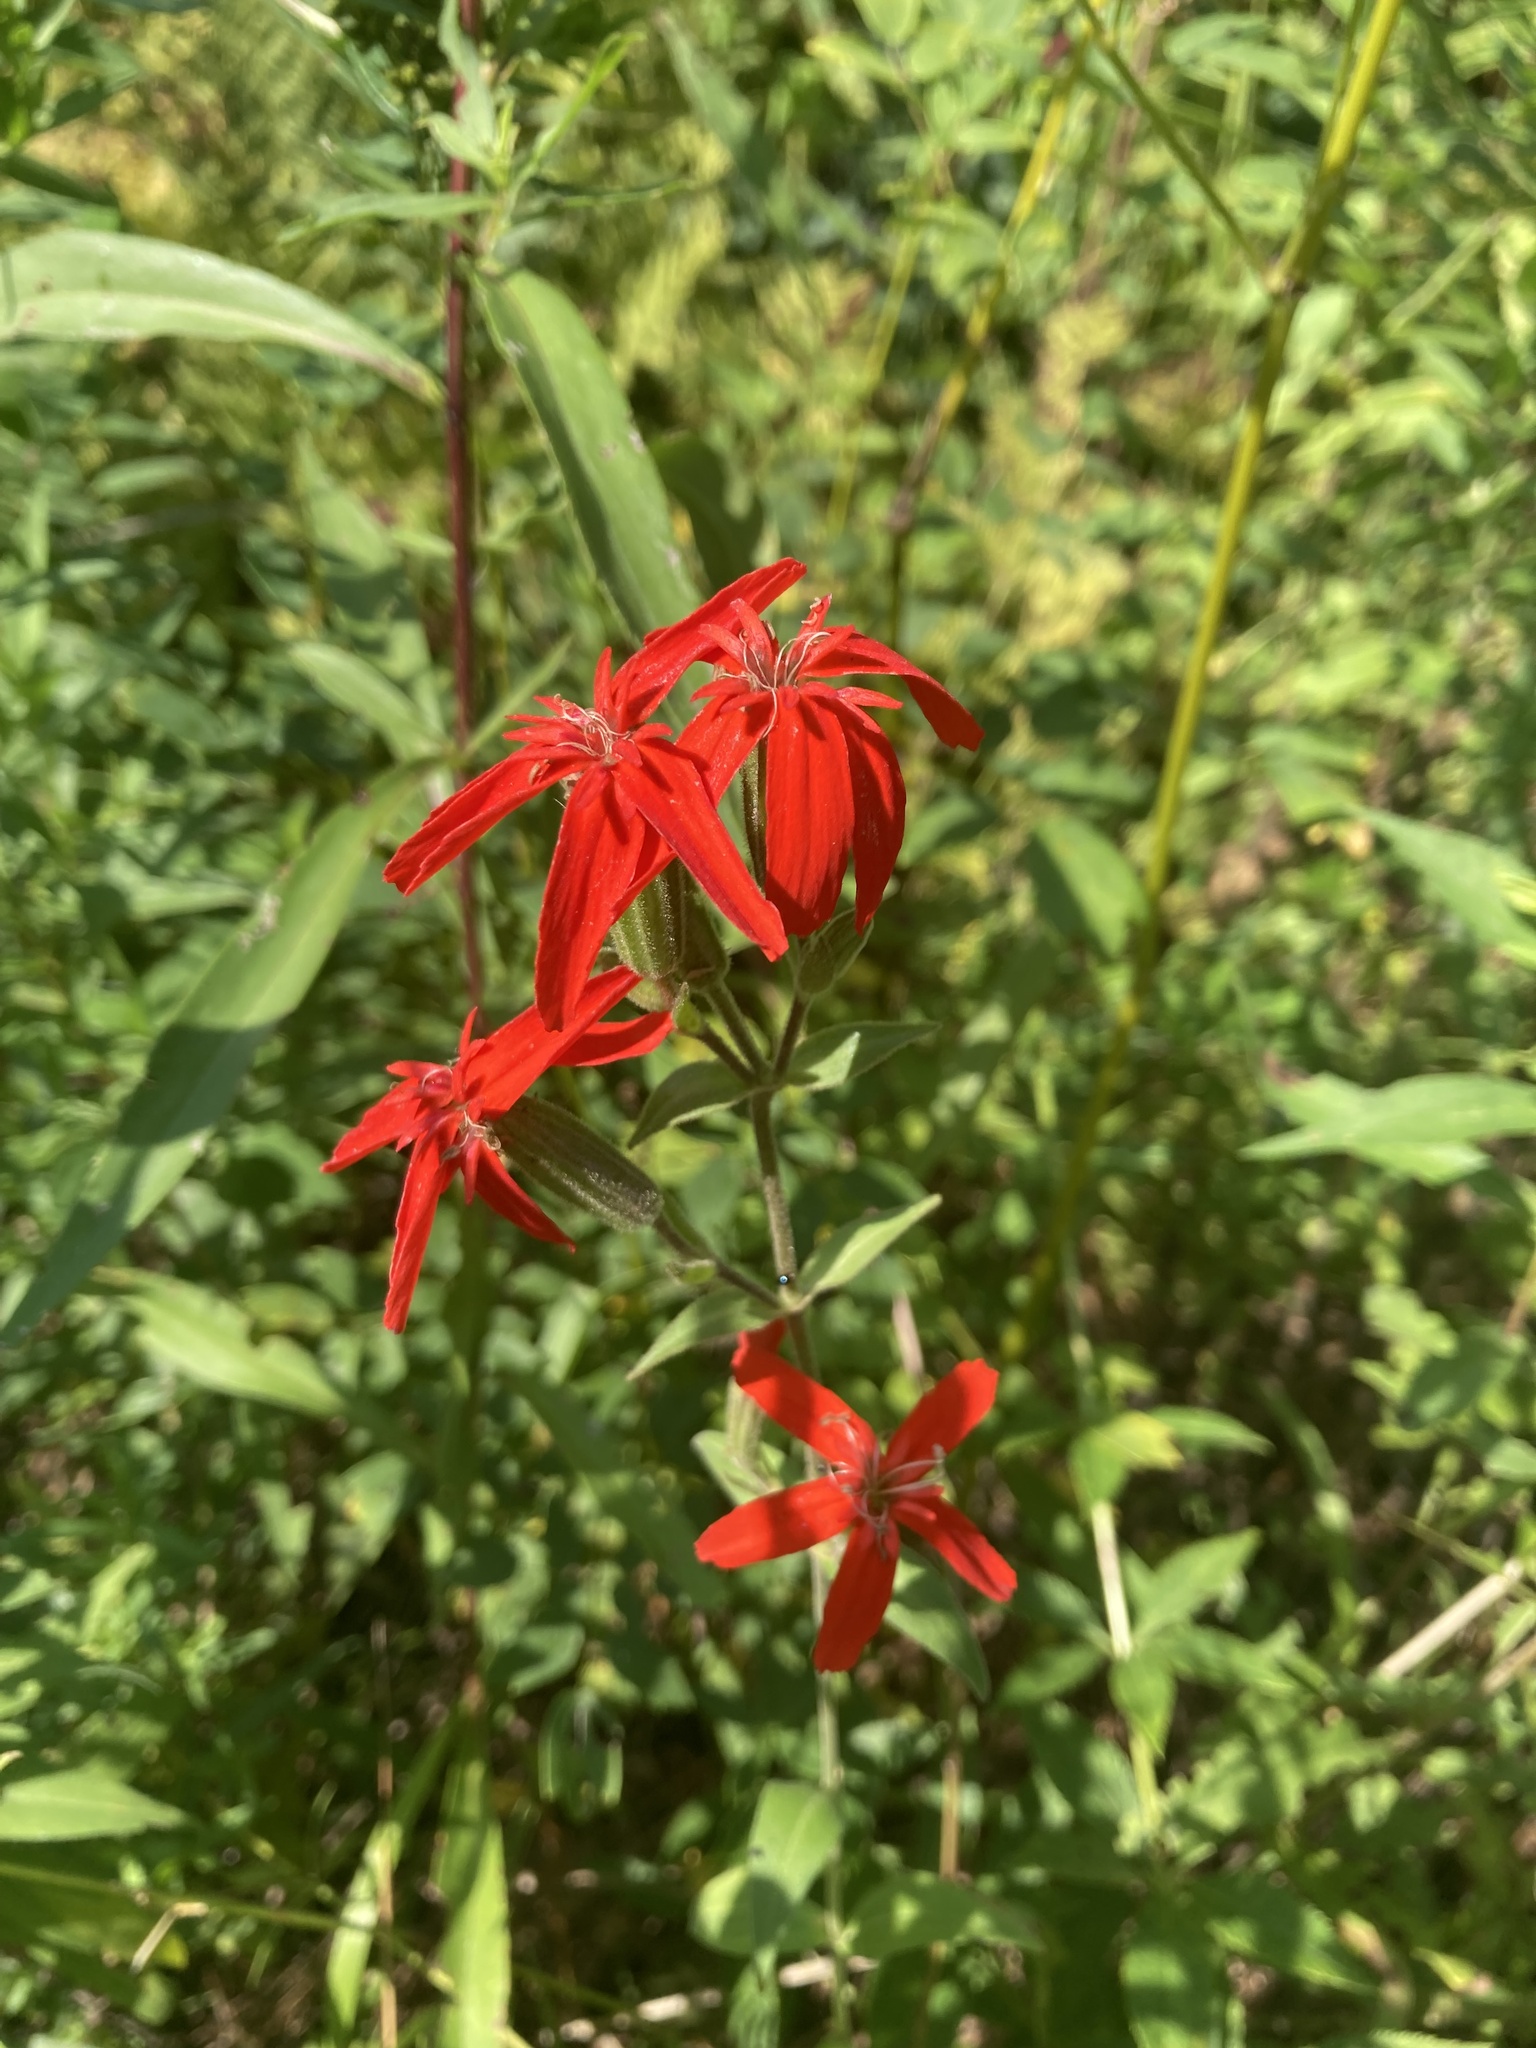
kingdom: Plantae
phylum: Tracheophyta
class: Magnoliopsida
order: Caryophyllales
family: Caryophyllaceae
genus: Silene
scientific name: Silene regia
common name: Royal catchfly
